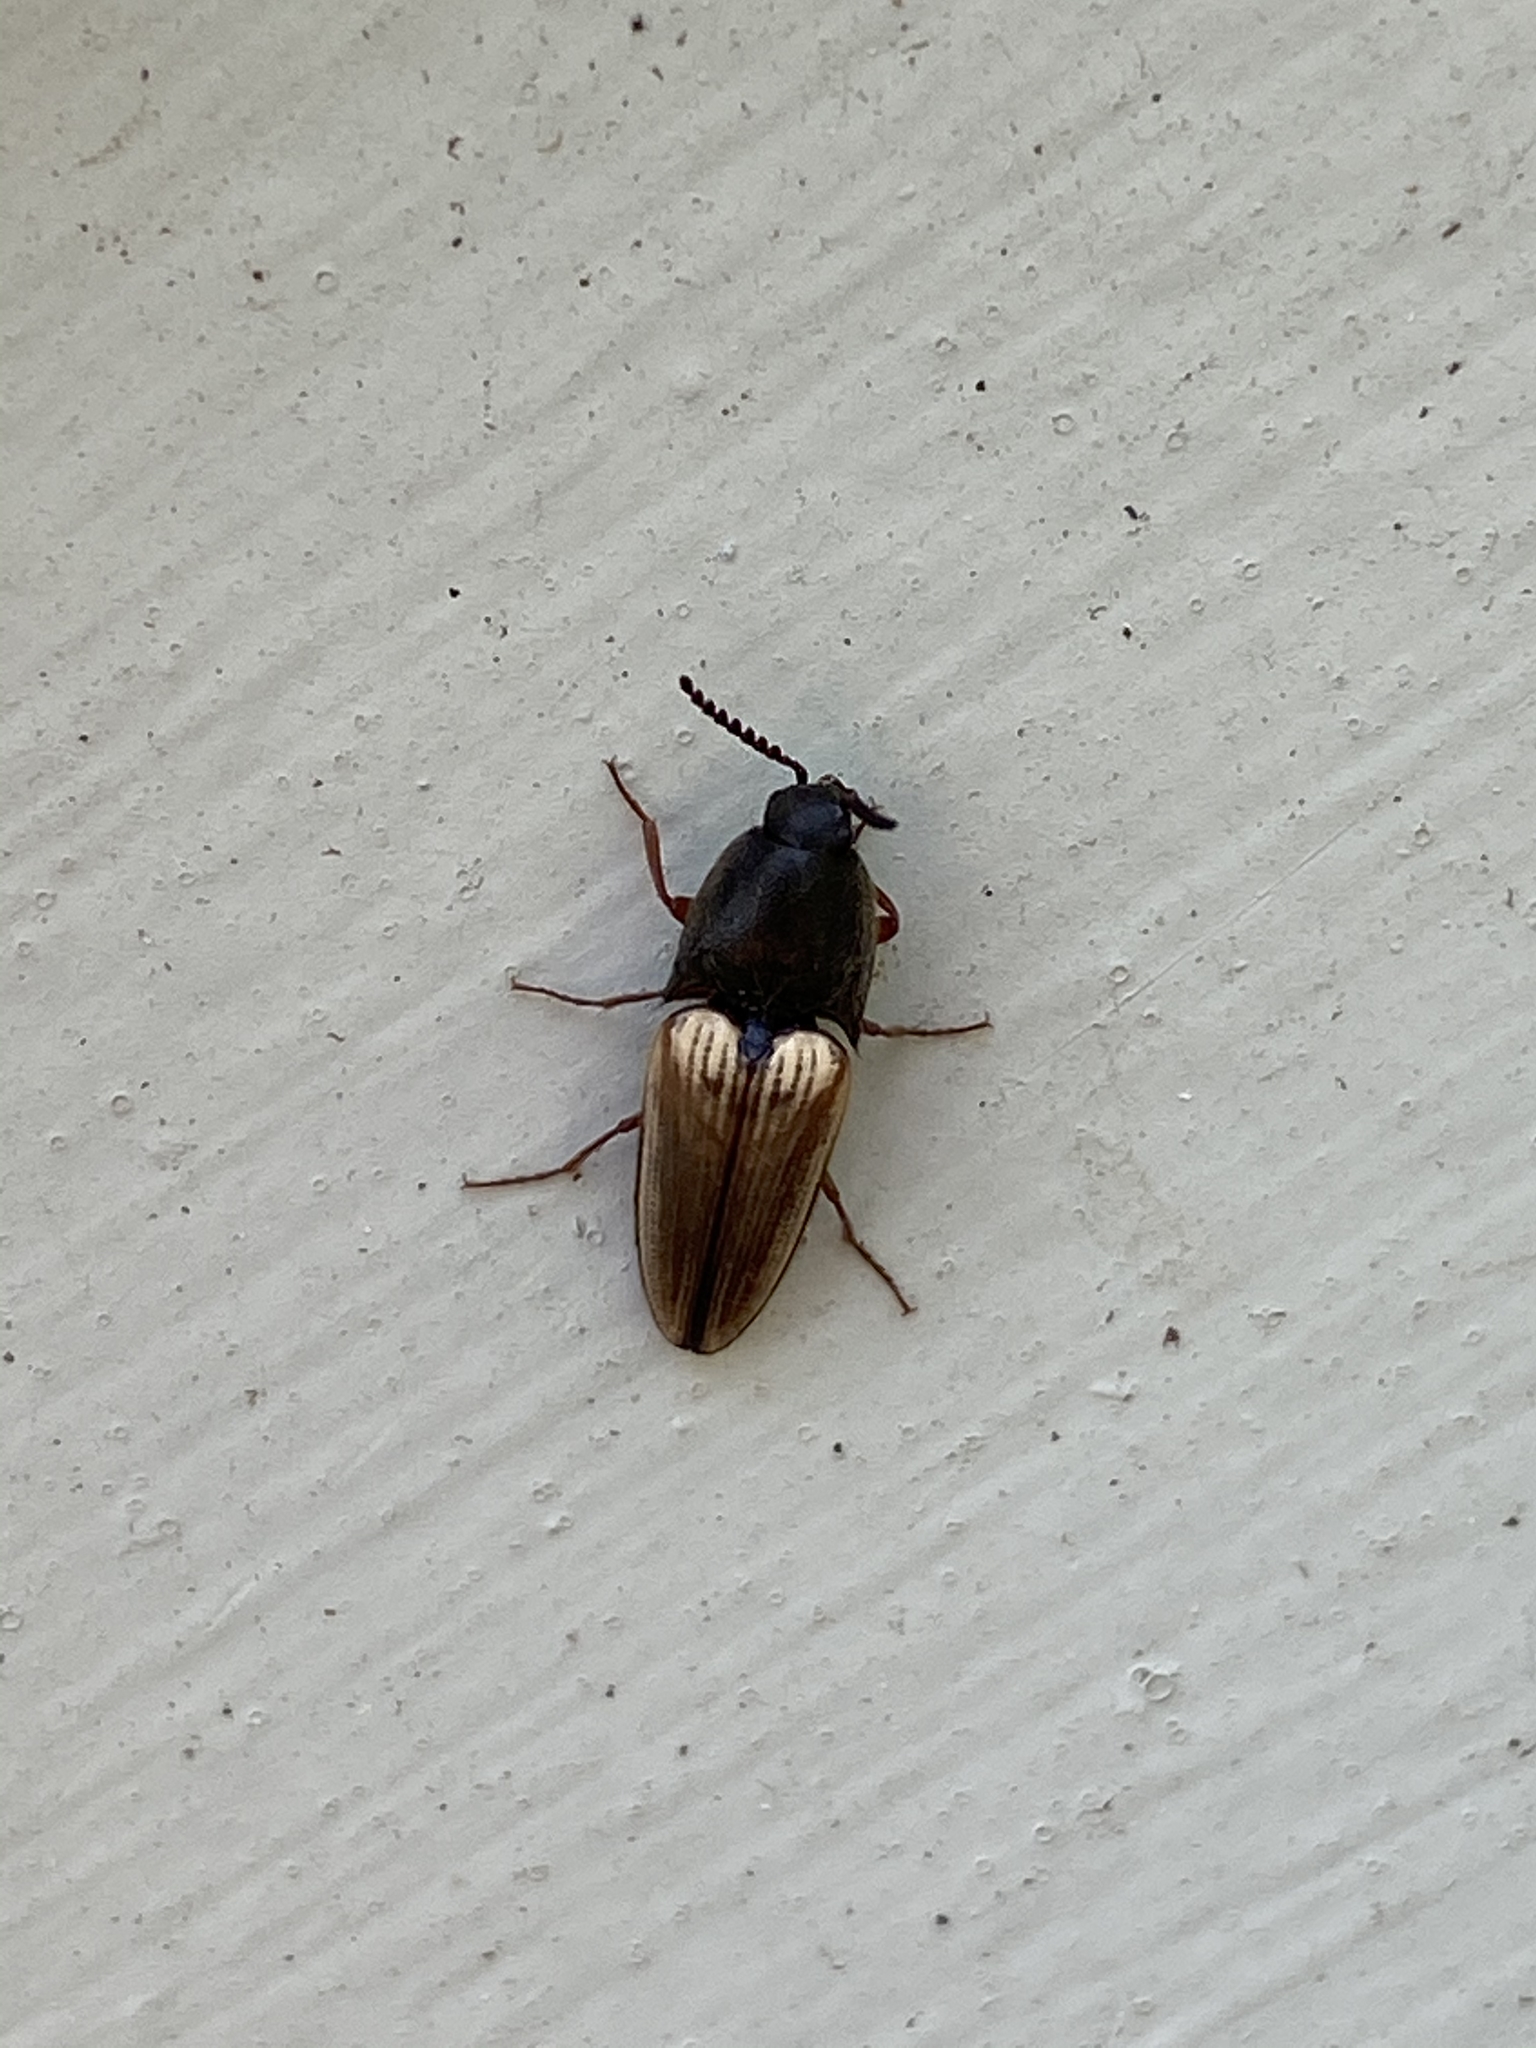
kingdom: Animalia
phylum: Arthropoda
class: Insecta
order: Coleoptera
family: Elateridae
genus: Ampedus
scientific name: Ampedus nigricollis
